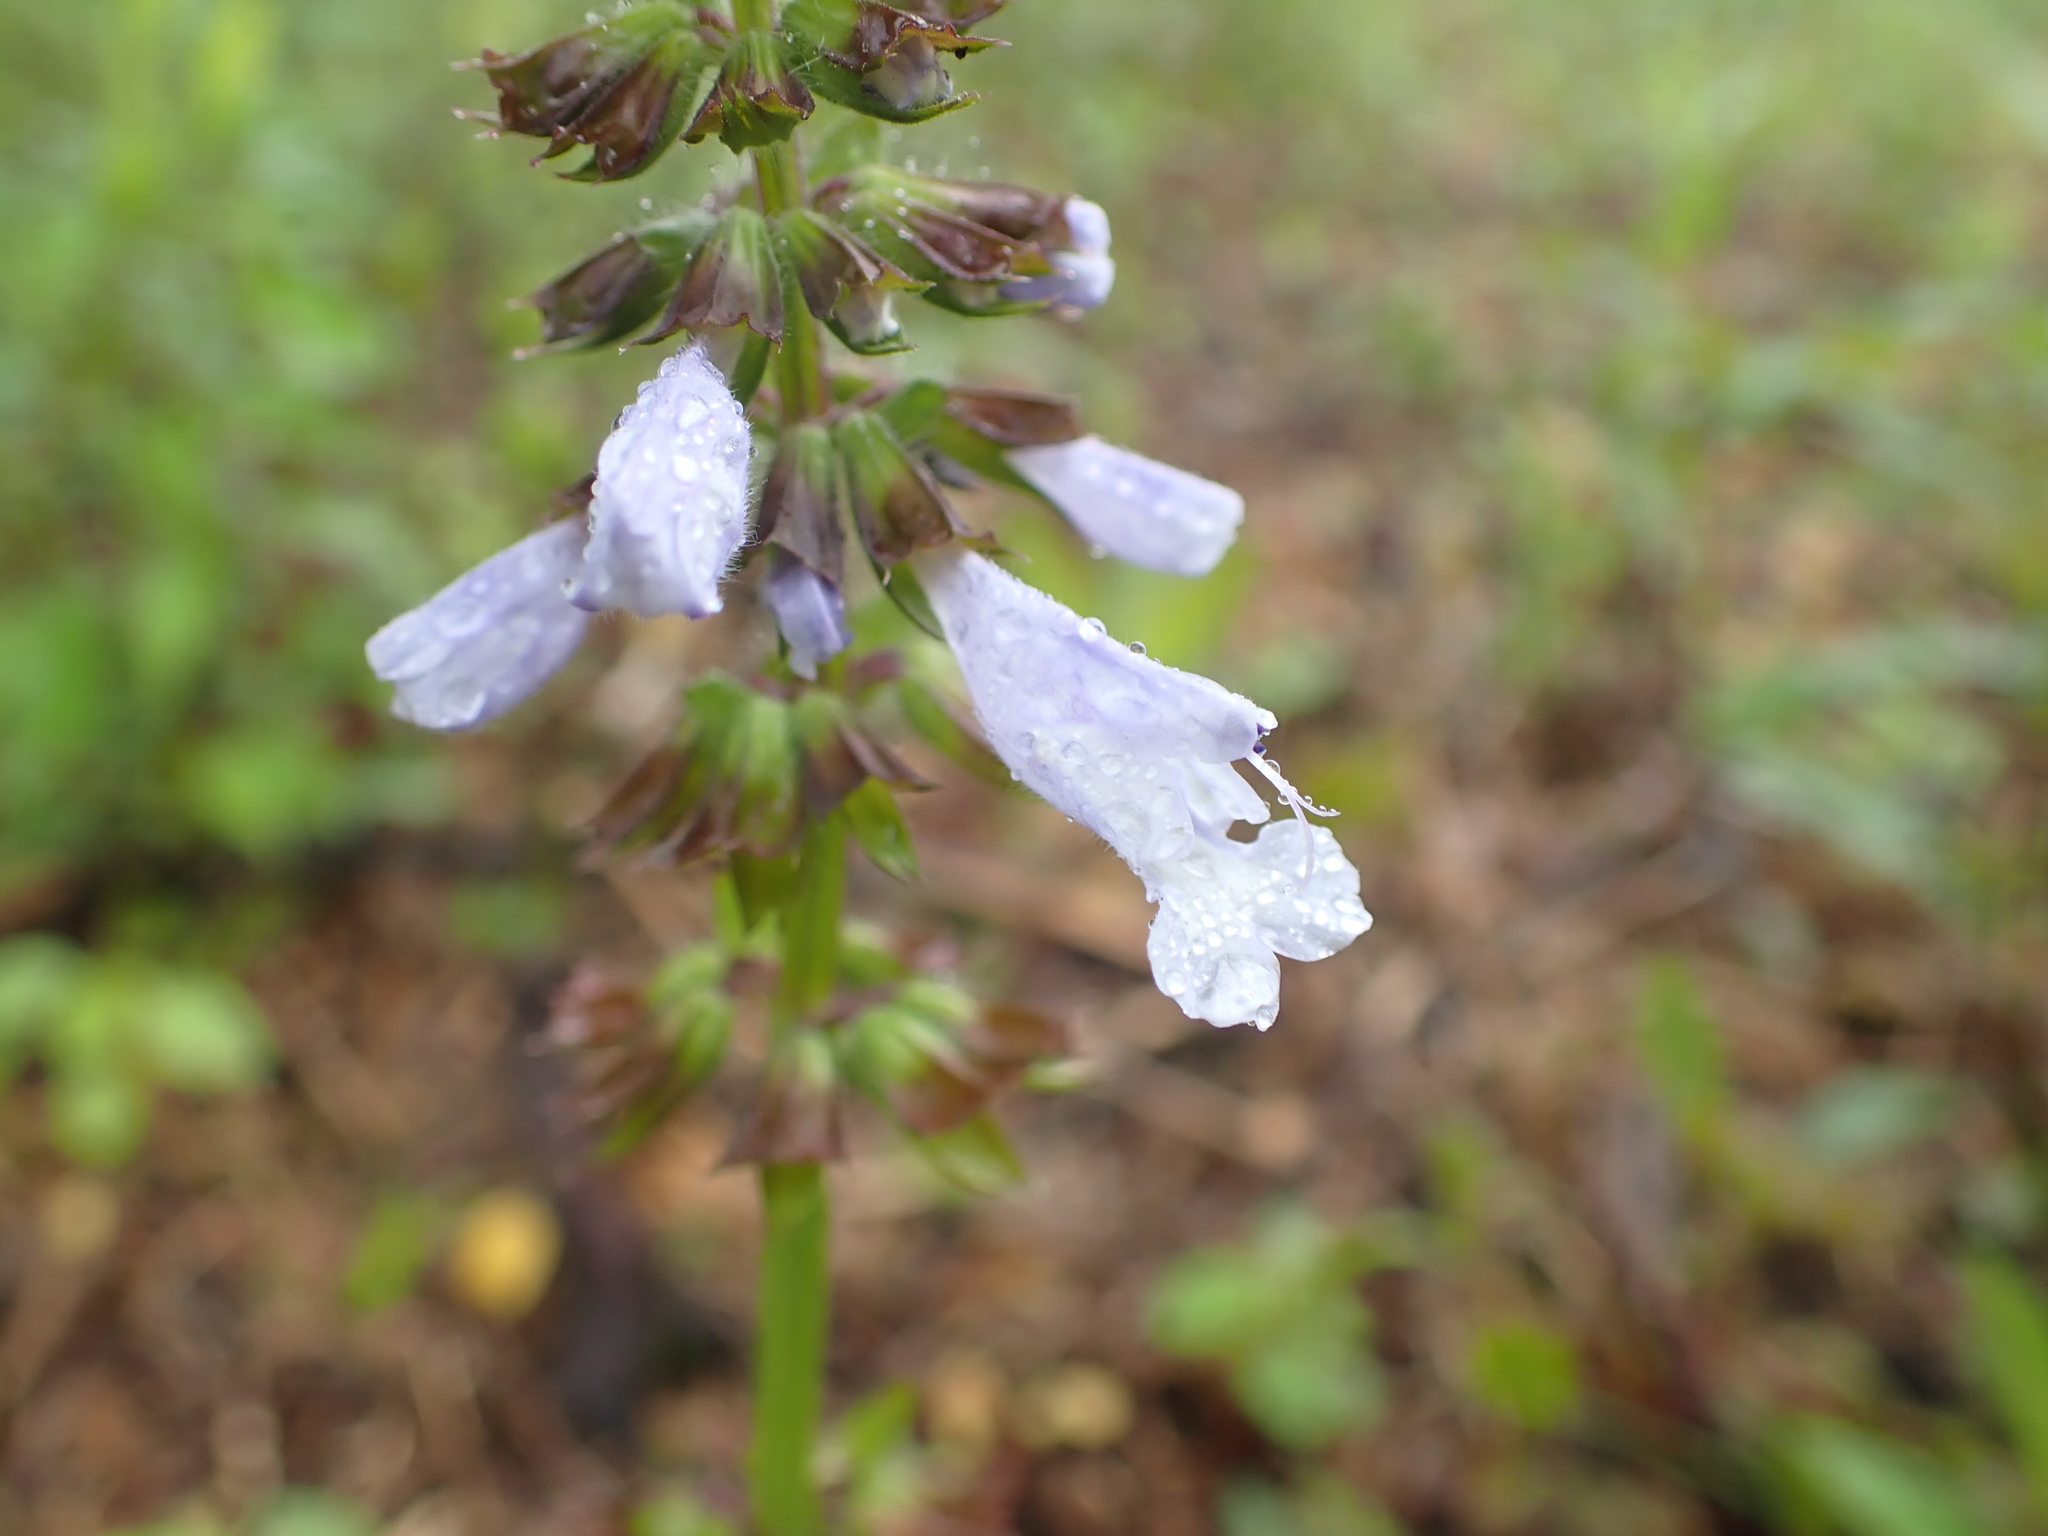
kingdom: Plantae
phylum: Tracheophyta
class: Magnoliopsida
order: Lamiales
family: Lamiaceae
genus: Salvia
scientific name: Salvia lyrata
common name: Cancerweed
